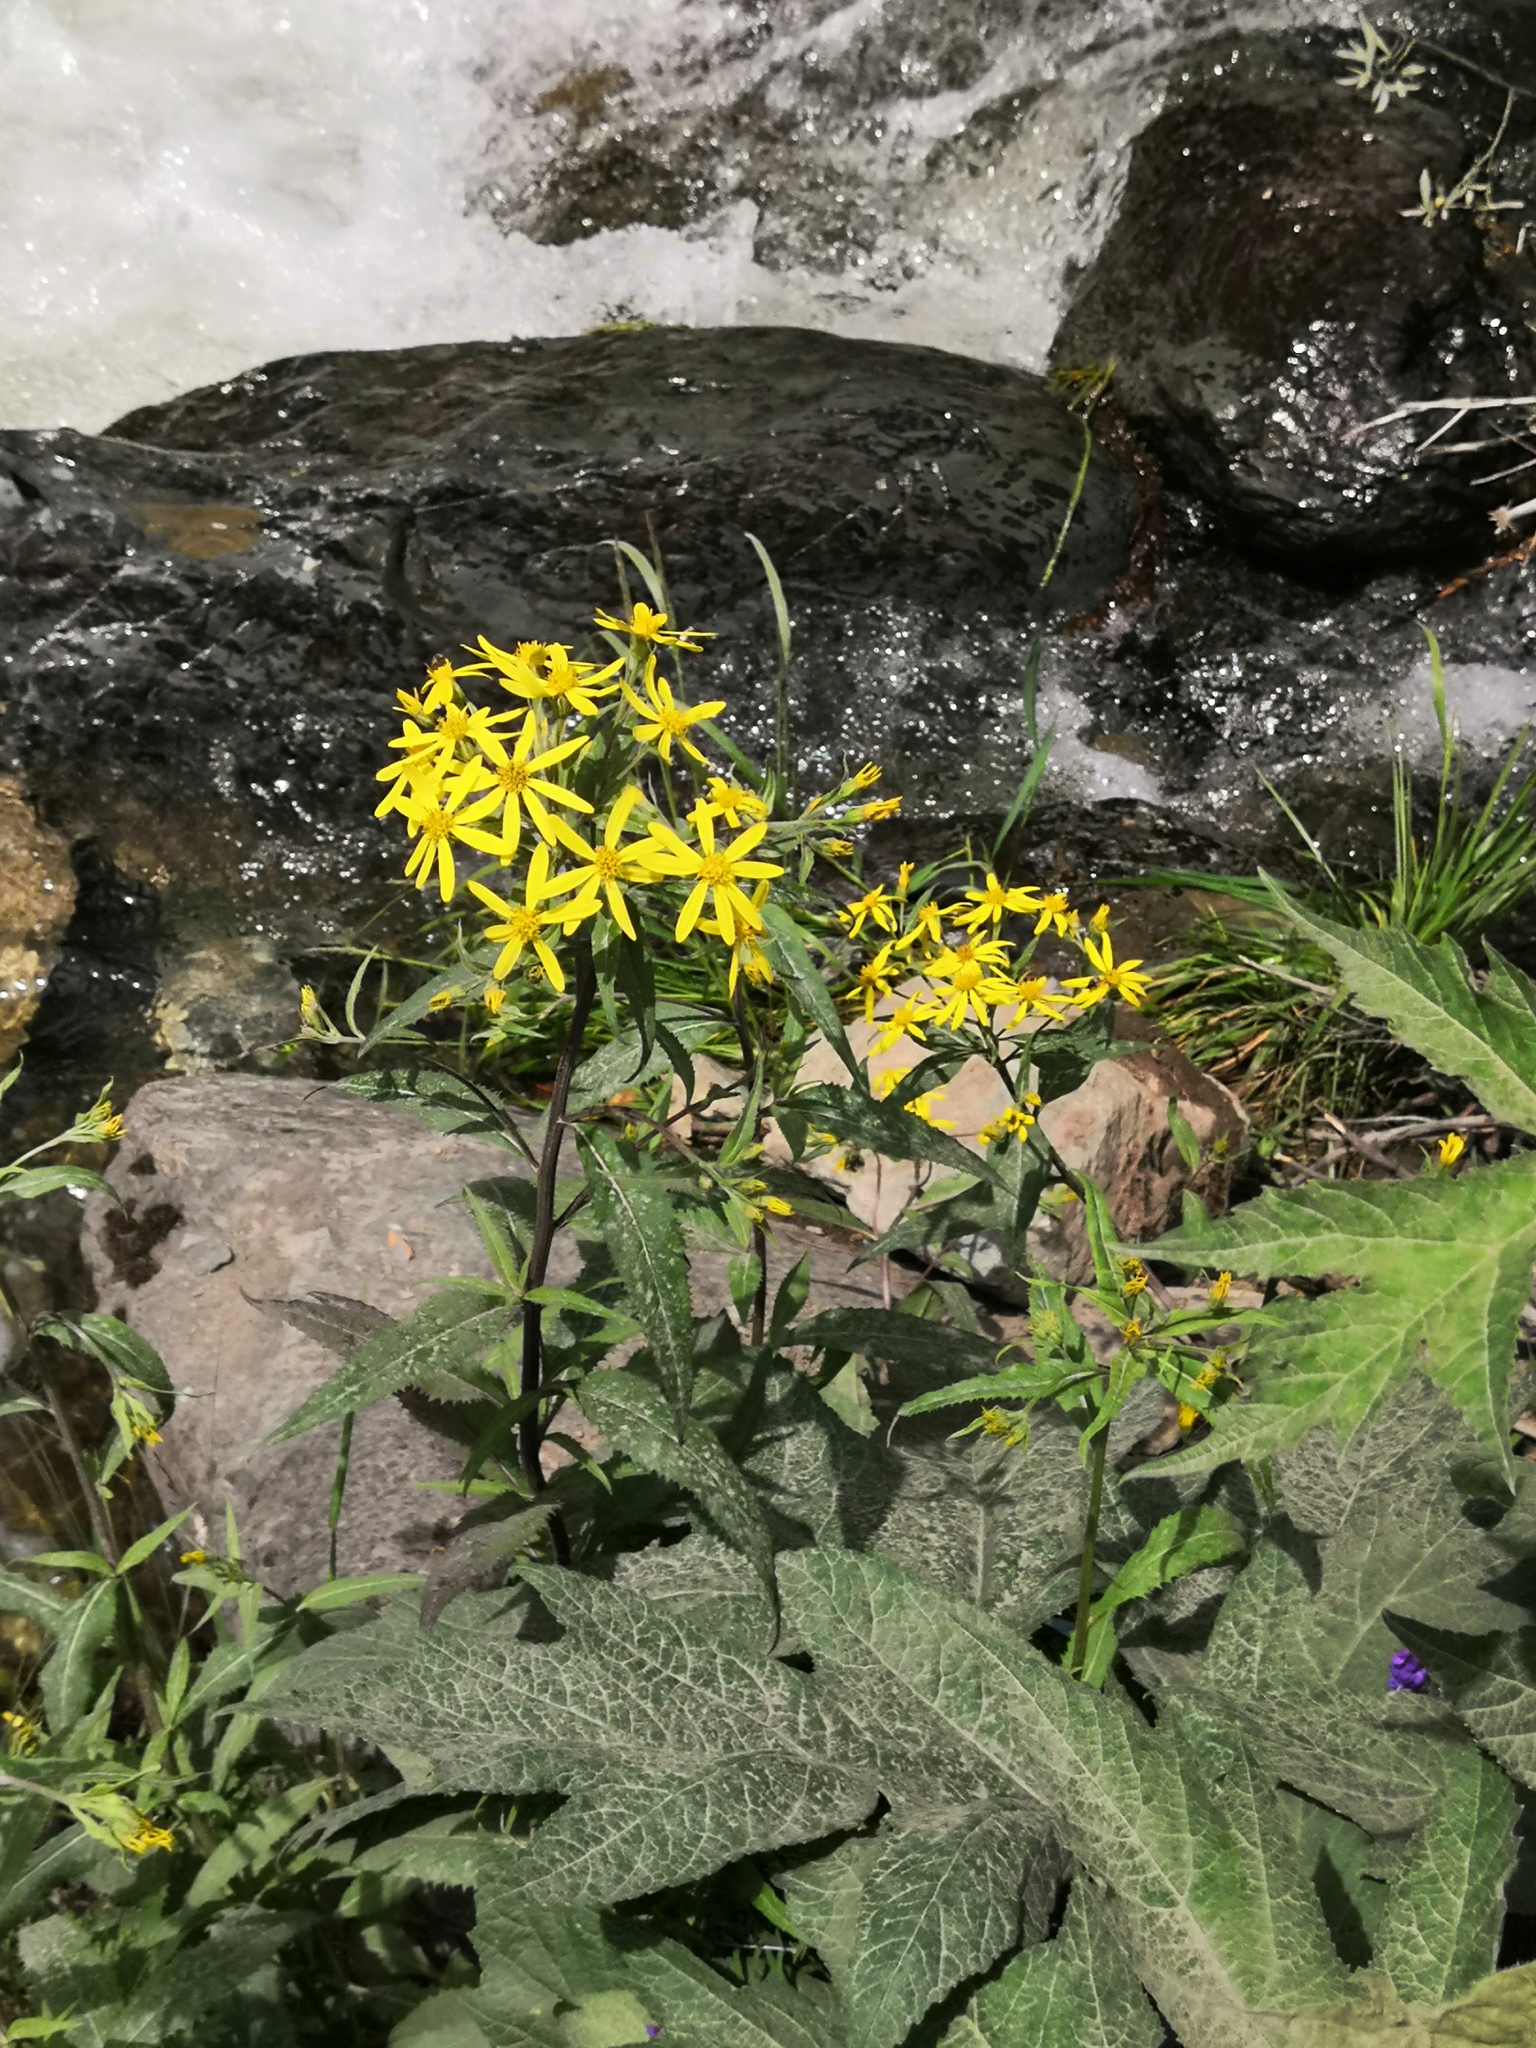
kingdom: Plantae
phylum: Tracheophyta
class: Magnoliopsida
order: Asterales
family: Asteraceae
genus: Senecio
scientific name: Senecio nemorensis
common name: Alpine ragwort
